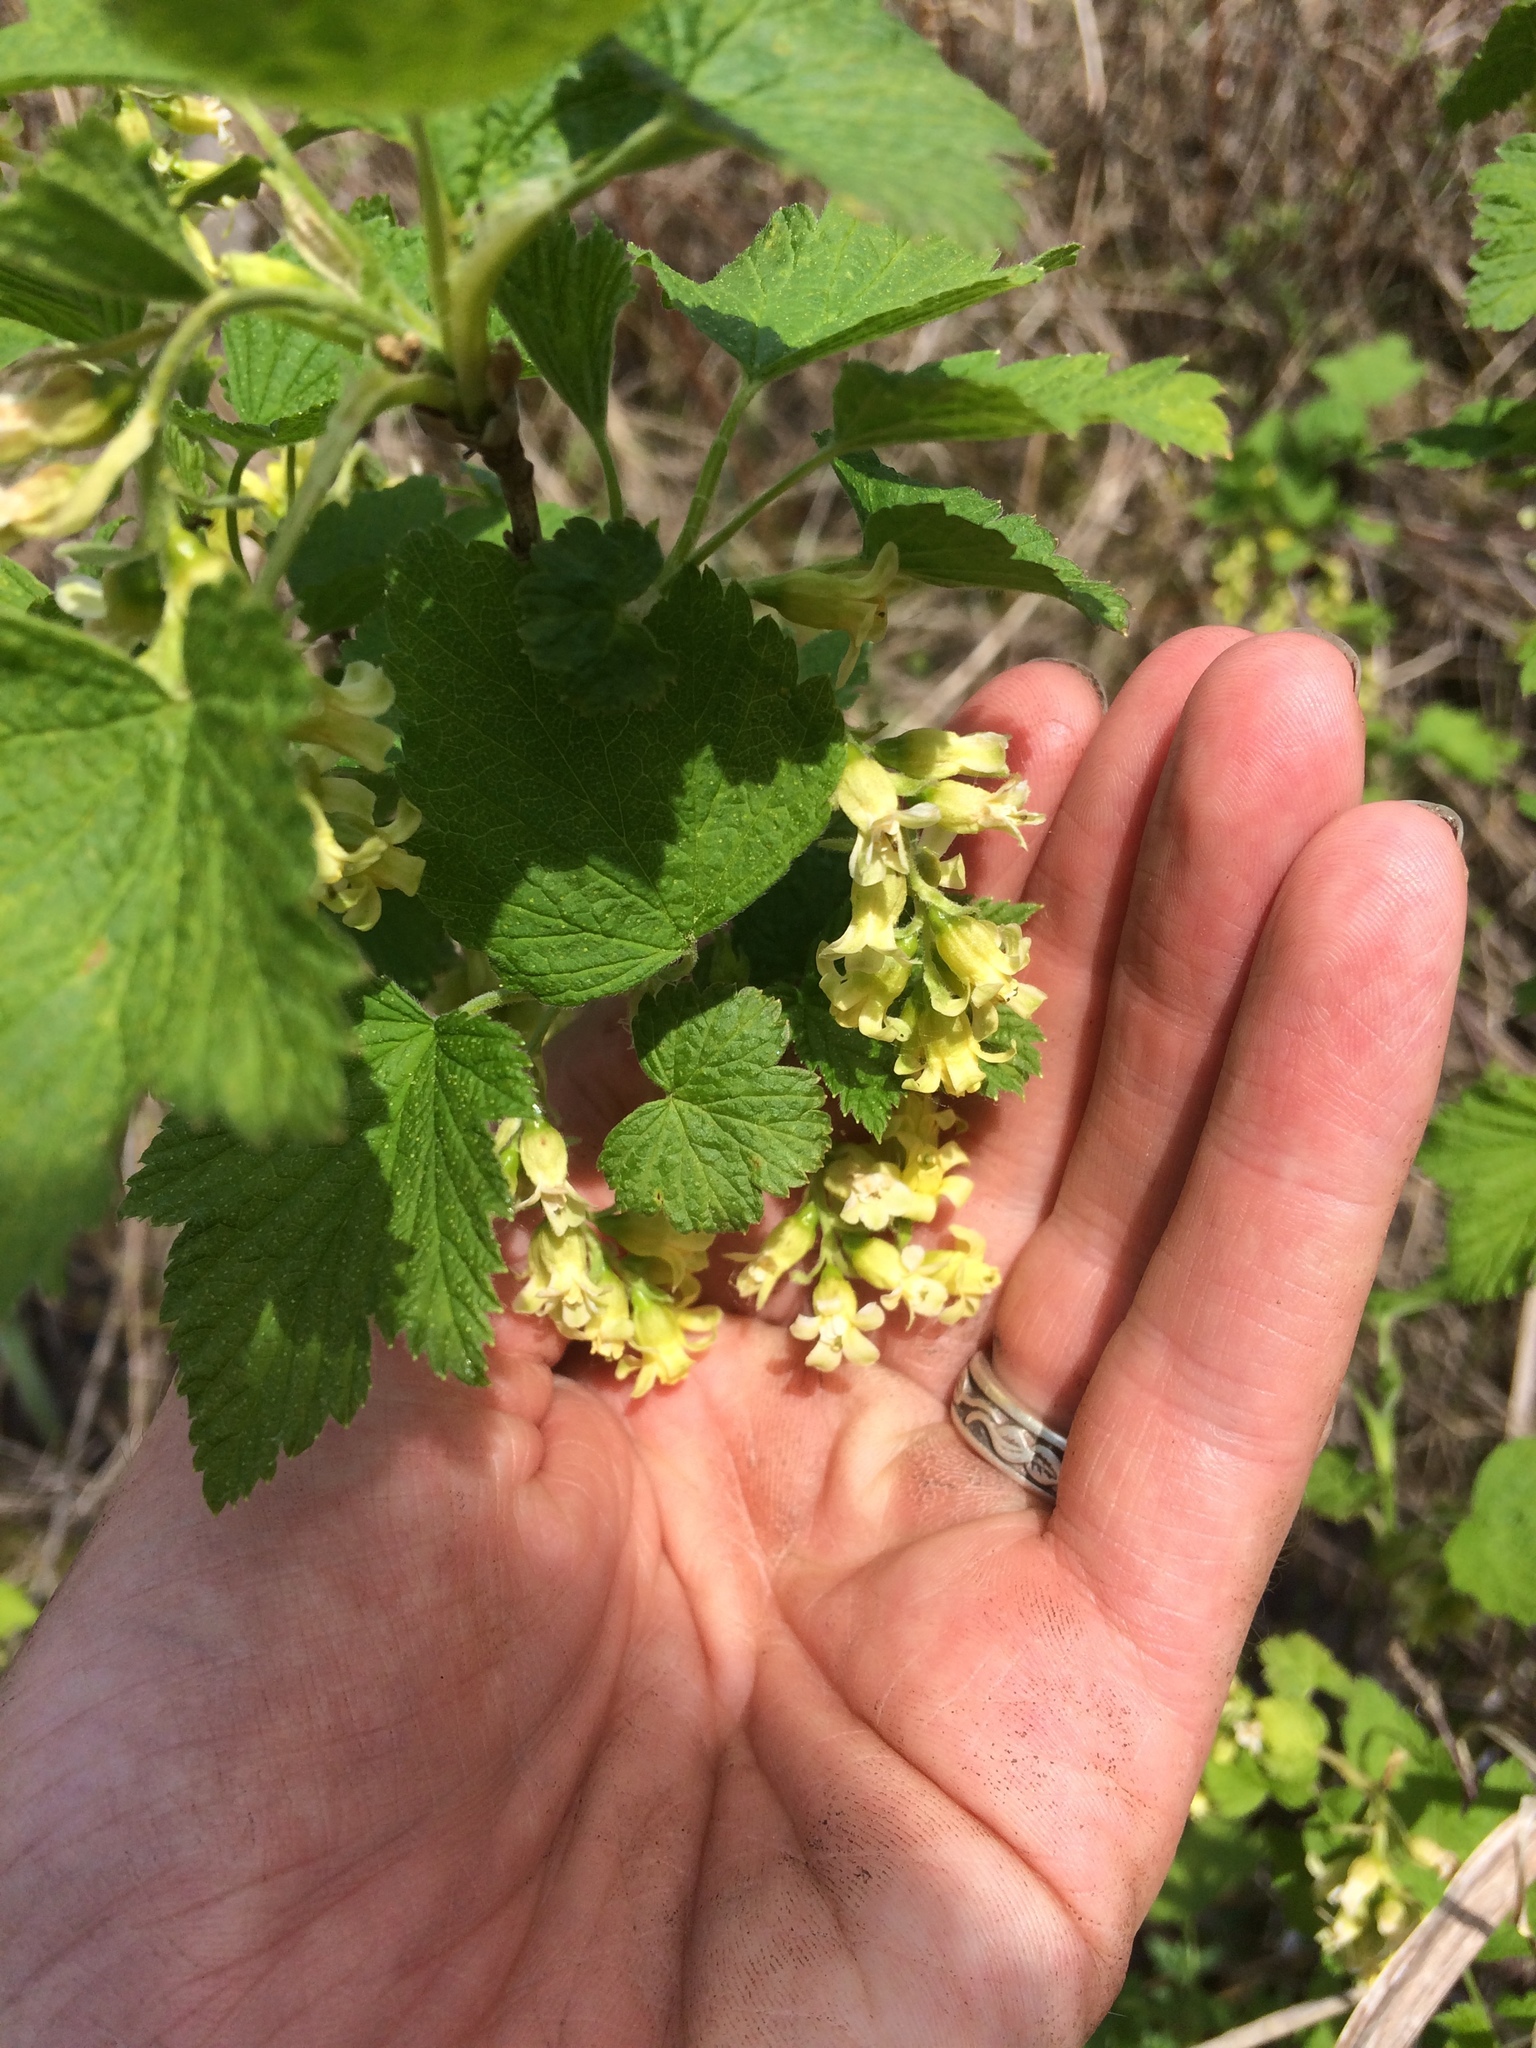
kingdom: Plantae
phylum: Tracheophyta
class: Magnoliopsida
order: Saxifragales
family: Grossulariaceae
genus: Ribes
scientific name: Ribes americanum
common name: American black currant
